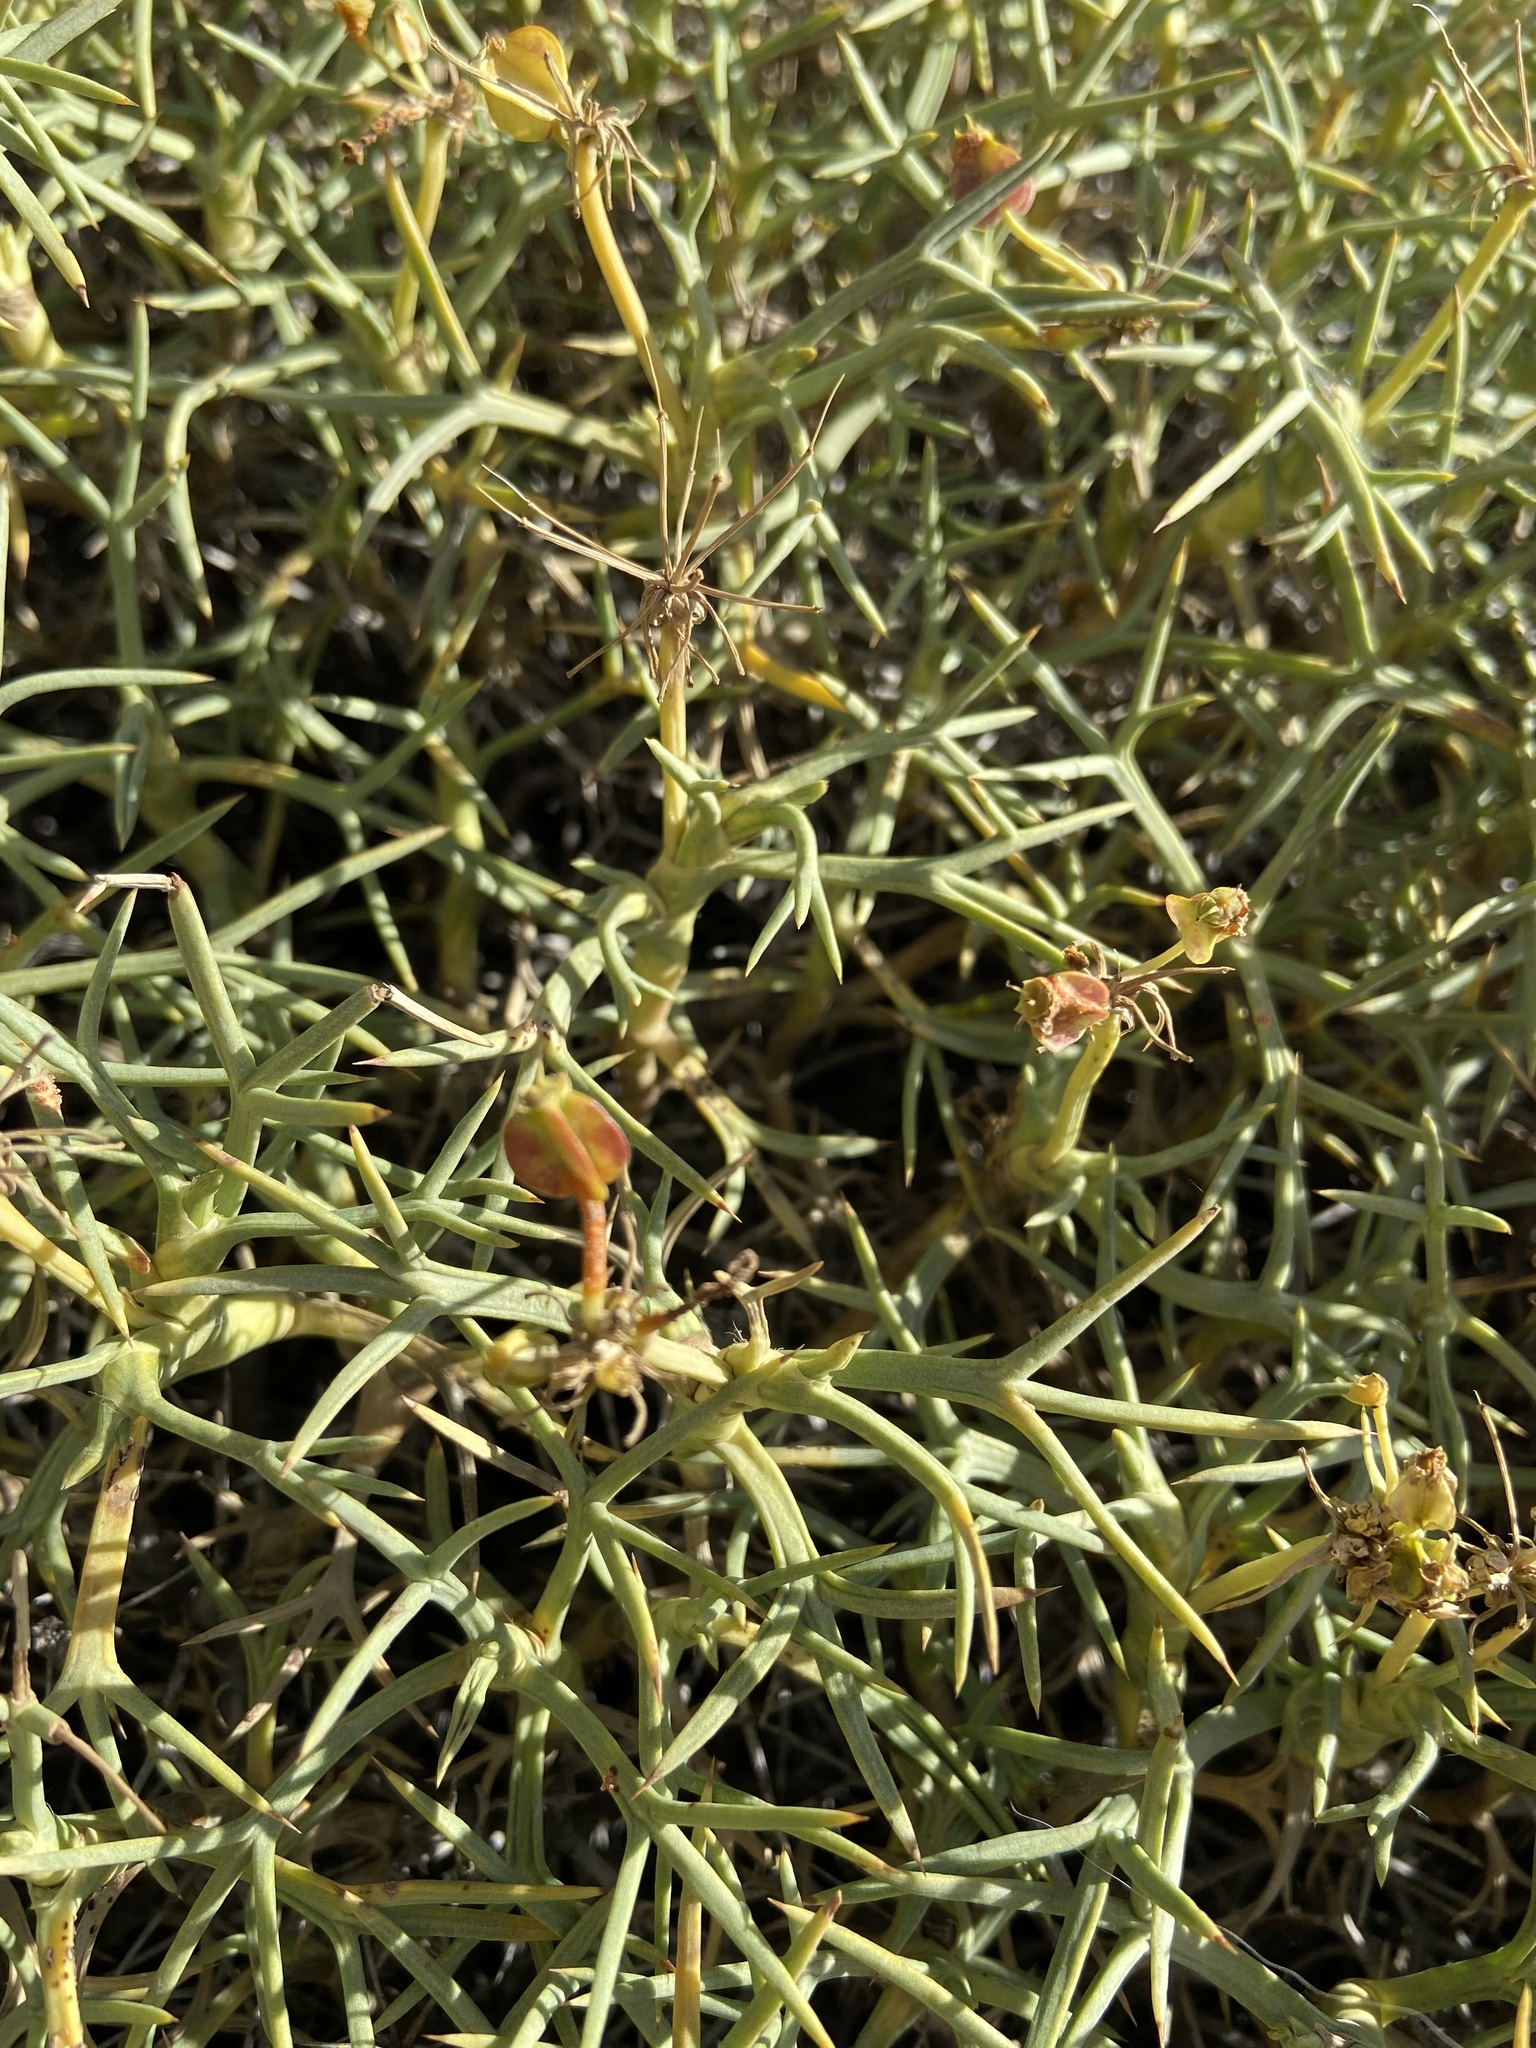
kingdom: Plantae
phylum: Tracheophyta
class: Magnoliopsida
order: Apiales
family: Apiaceae
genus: Azorella
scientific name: Azorella prolifera
